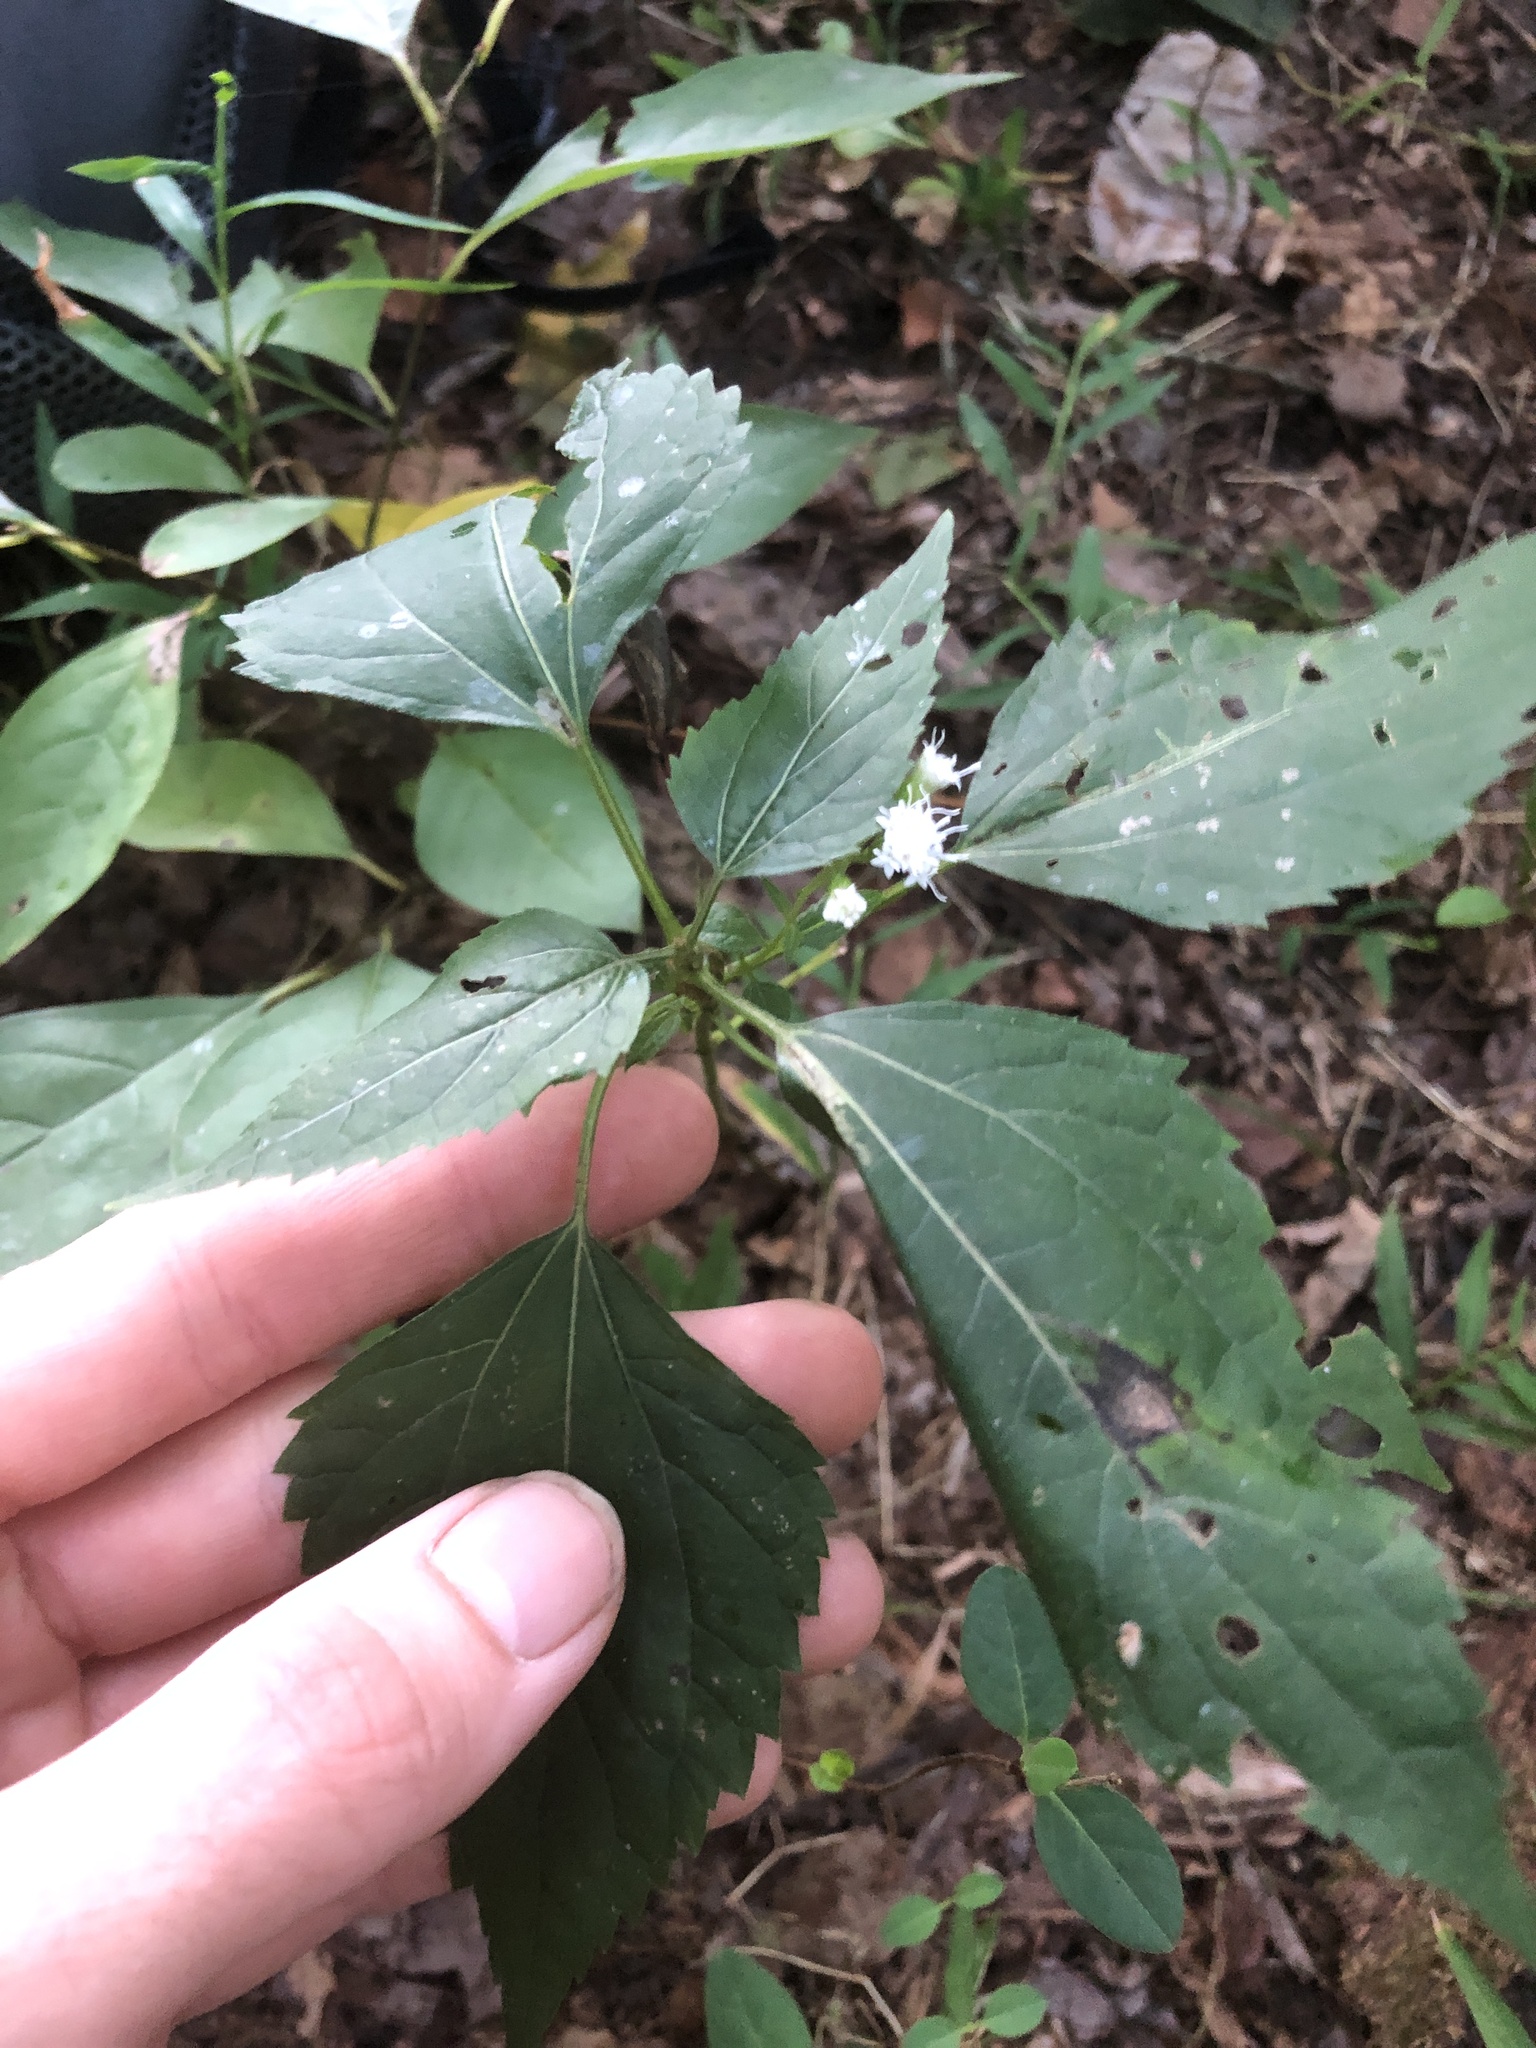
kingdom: Plantae
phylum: Tracheophyta
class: Magnoliopsida
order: Asterales
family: Asteraceae
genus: Ageratina
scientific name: Ageratina altissima
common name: White snakeroot
